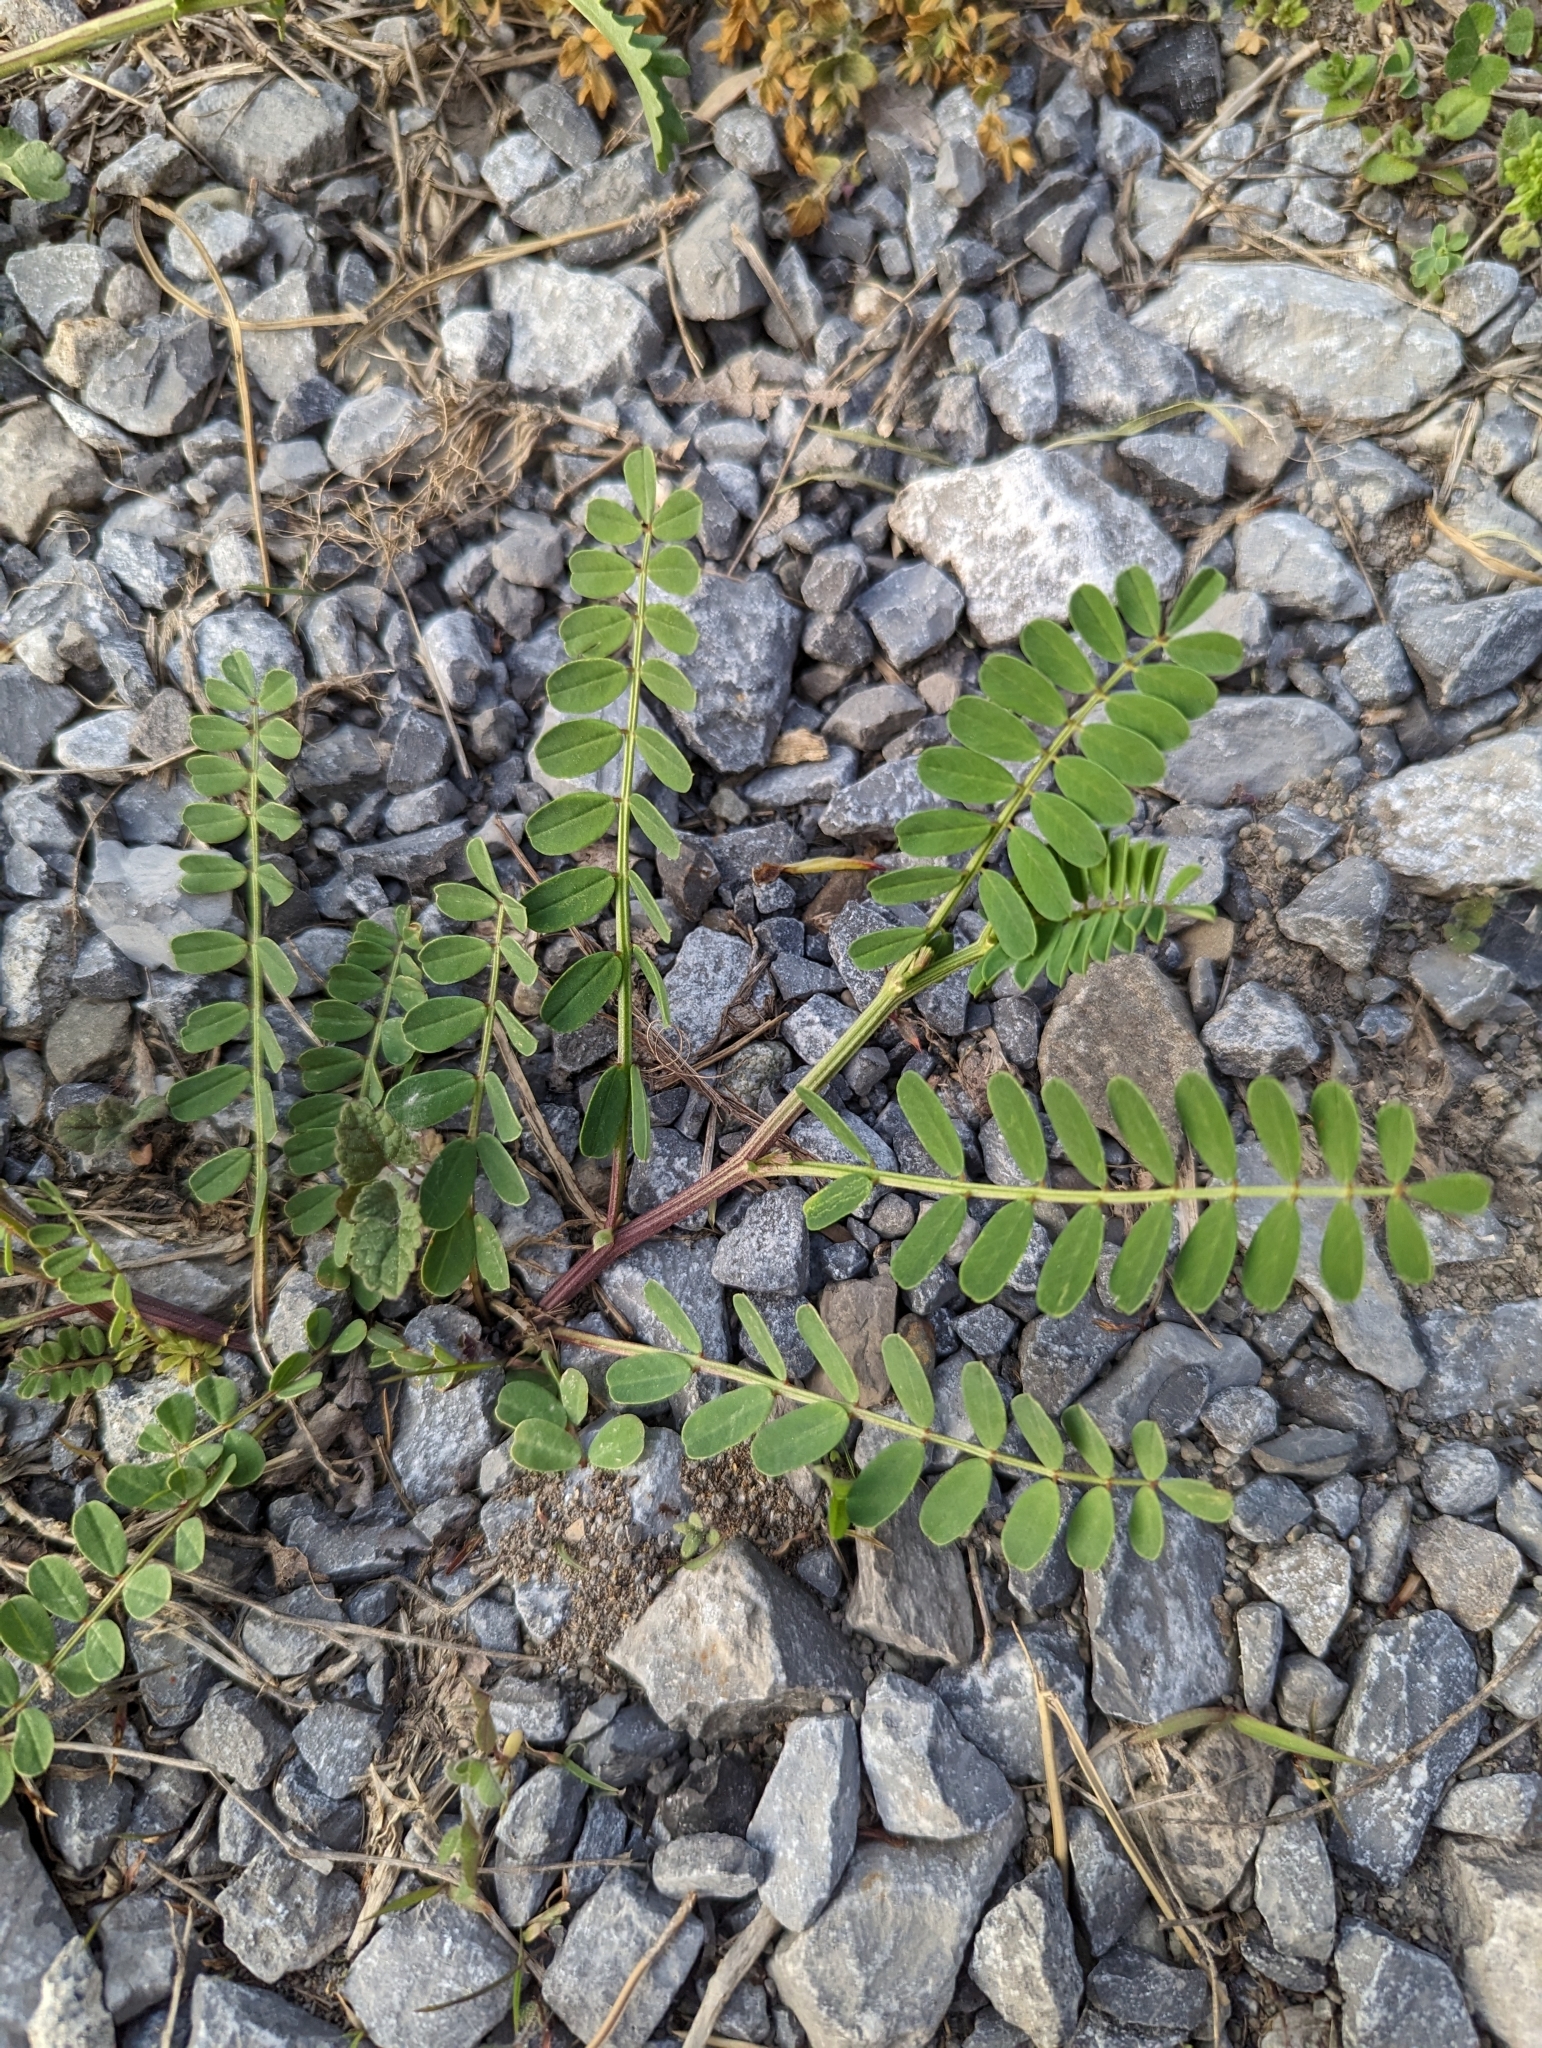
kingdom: Plantae
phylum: Tracheophyta
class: Magnoliopsida
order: Fabales
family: Fabaceae
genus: Coronilla
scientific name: Coronilla varia
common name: Crownvetch
